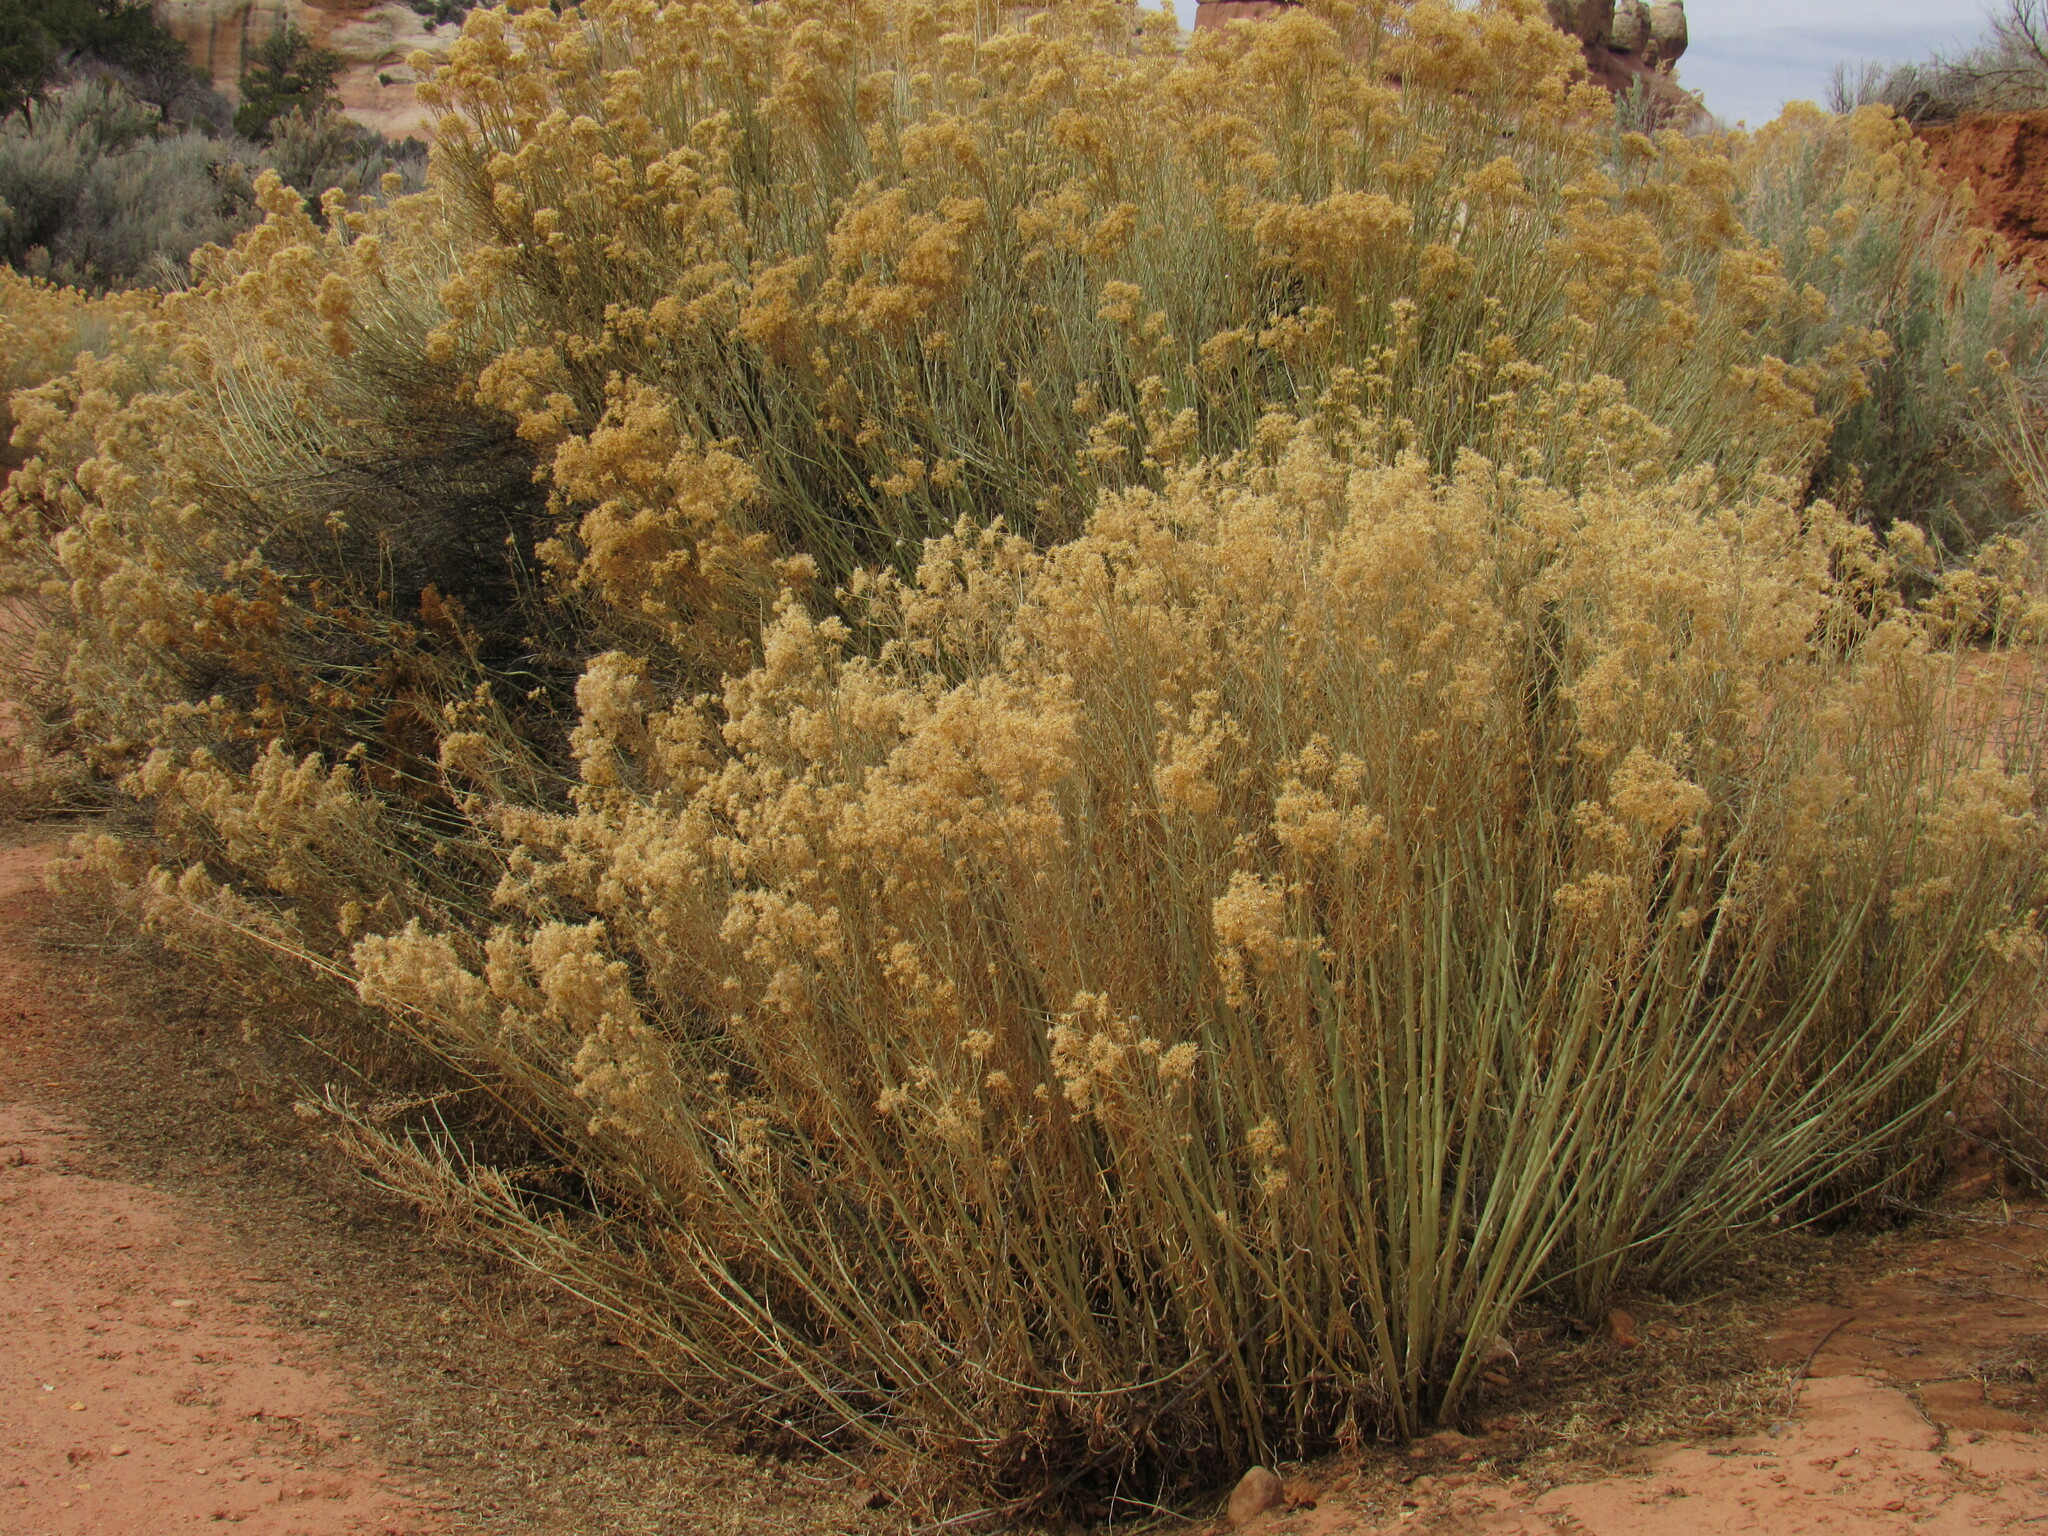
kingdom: Plantae
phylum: Tracheophyta
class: Magnoliopsida
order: Asterales
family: Asteraceae
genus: Ericameria
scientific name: Ericameria nauseosa
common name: Rubber rabbitbrush
